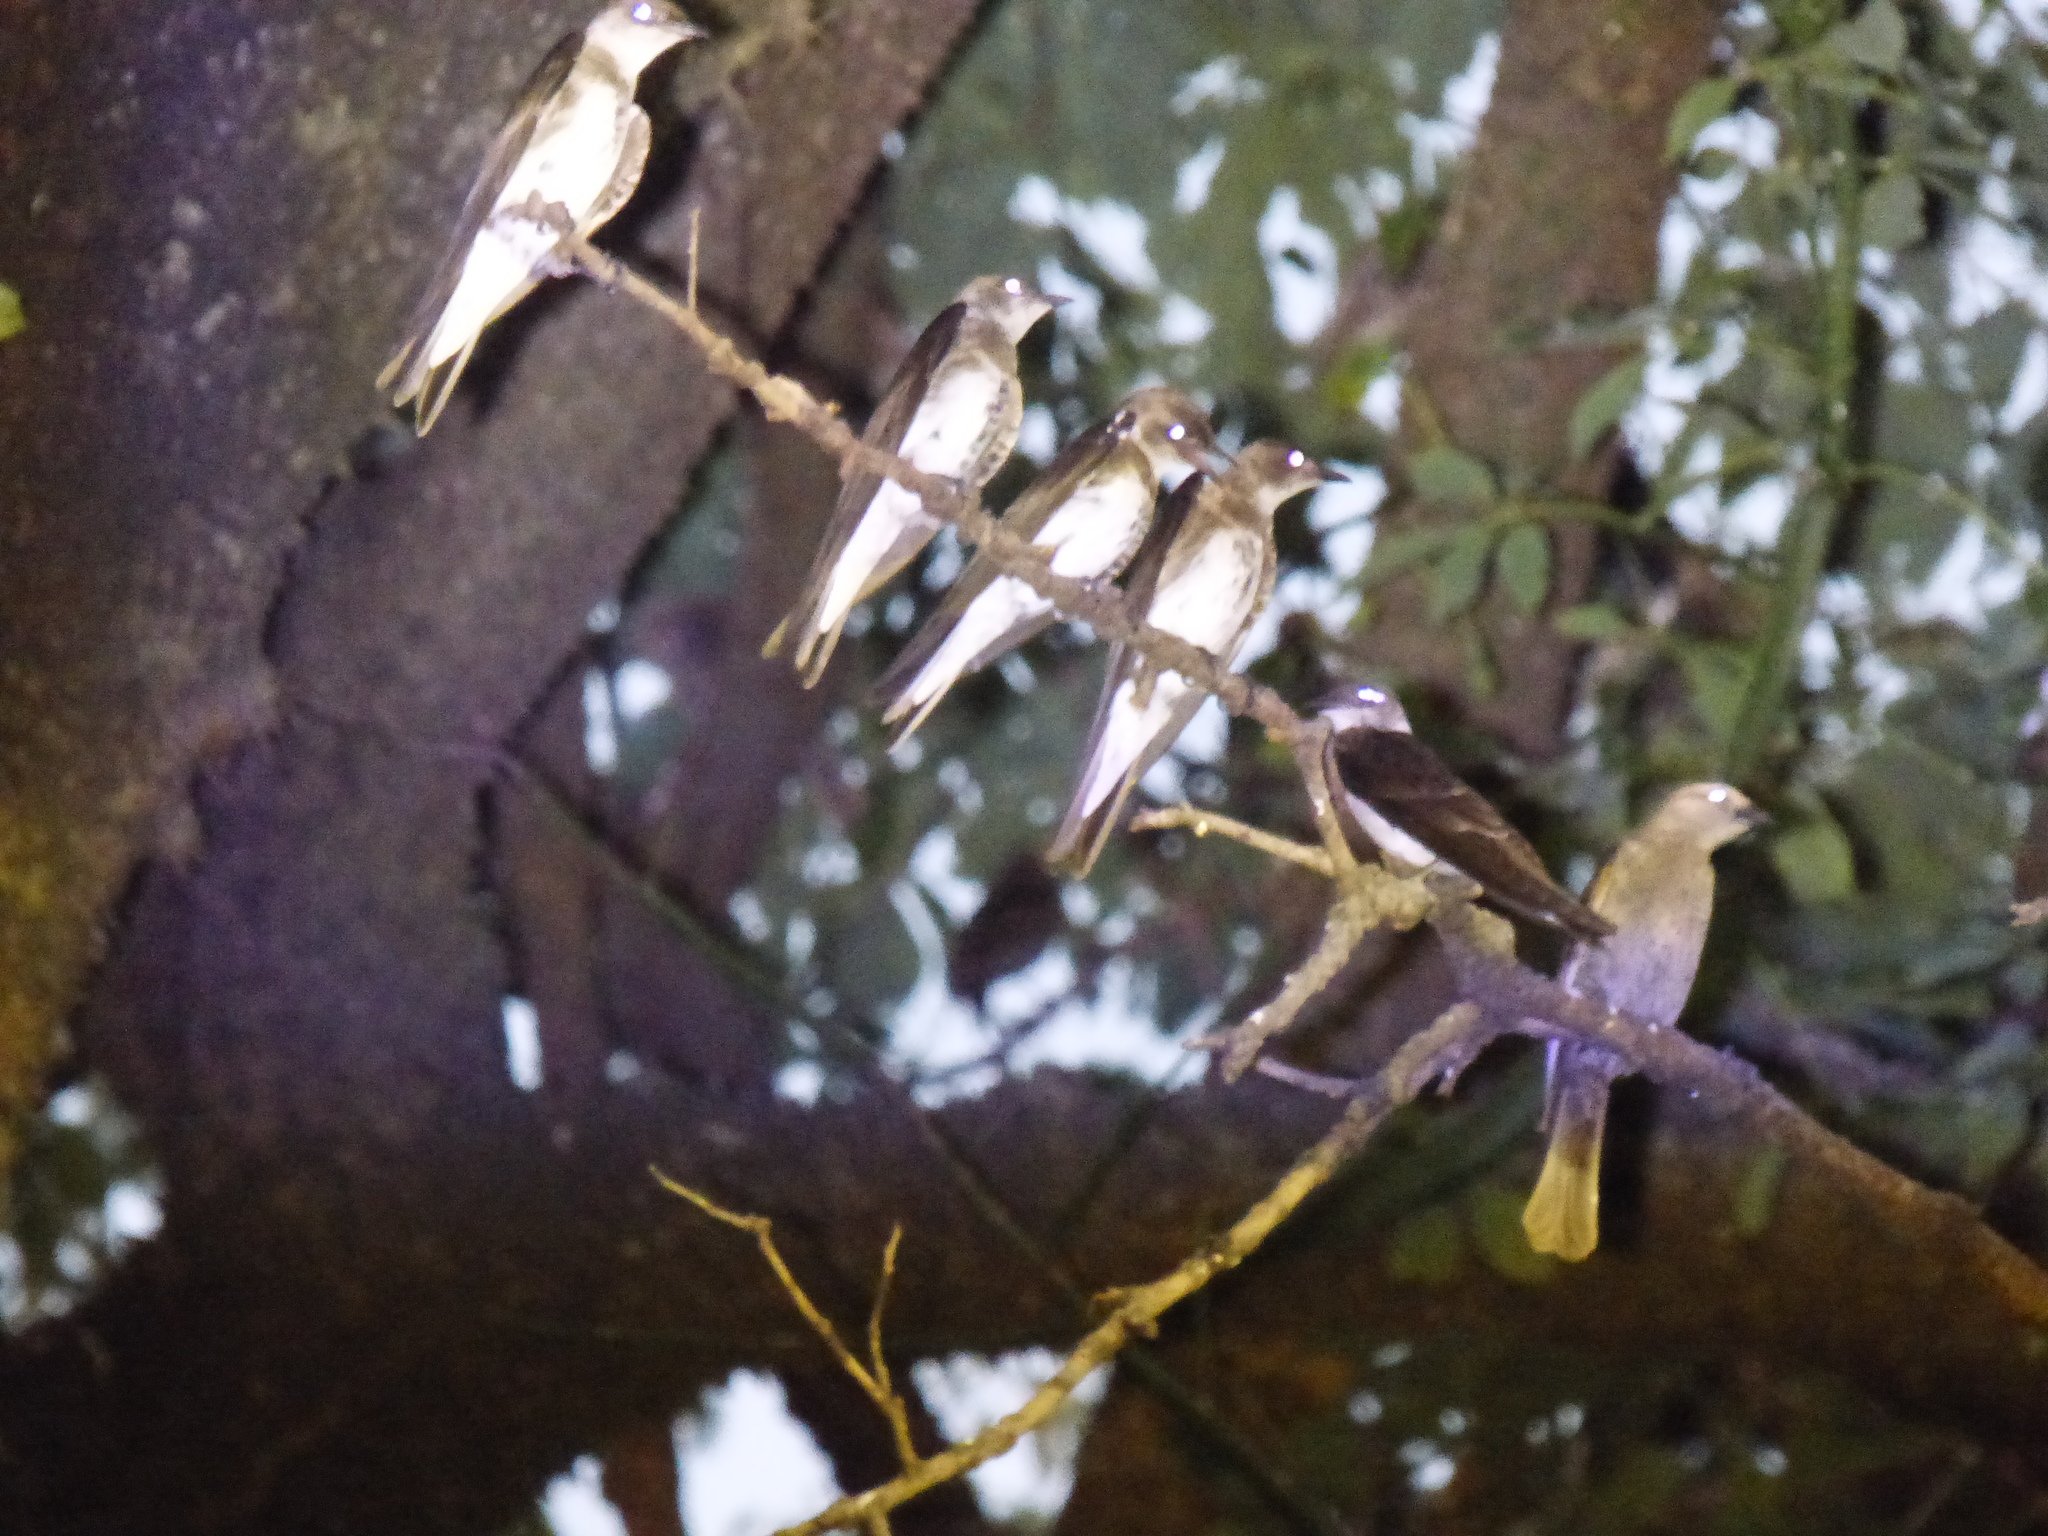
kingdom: Animalia
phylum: Chordata
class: Aves
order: Passeriformes
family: Hirundinidae
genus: Progne
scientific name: Progne tapera
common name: Brown-chested martin
